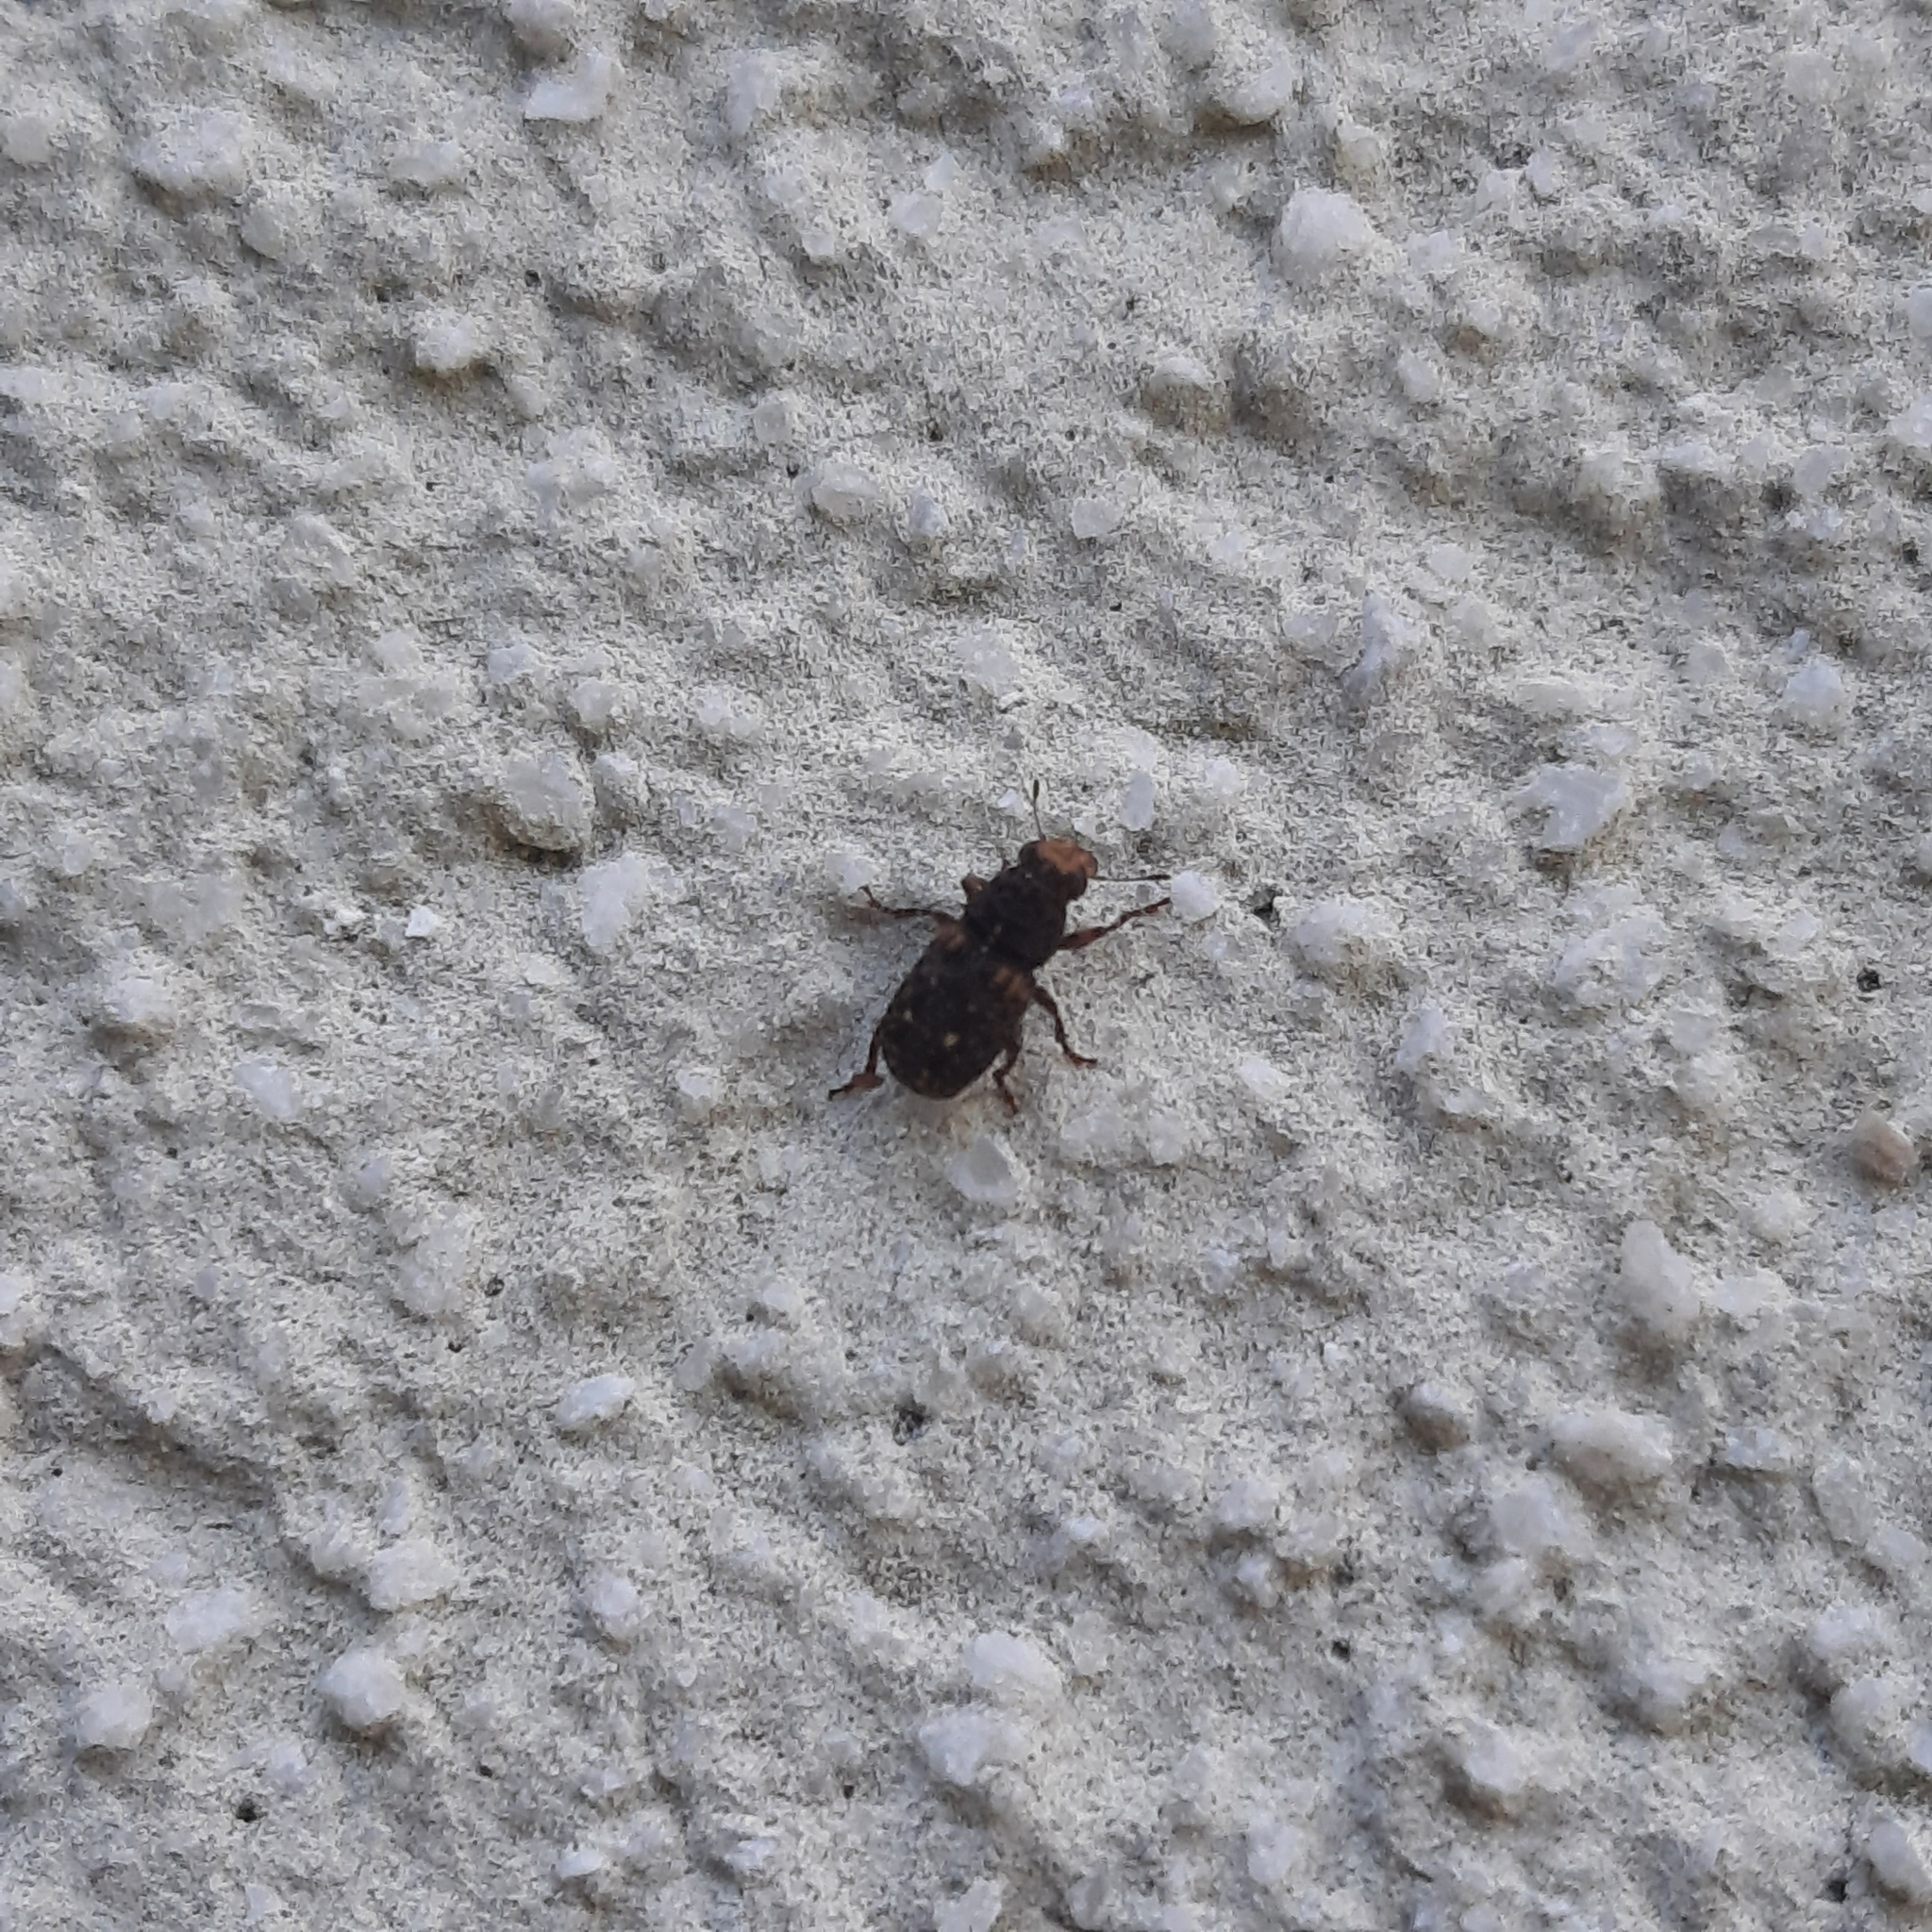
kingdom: Animalia
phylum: Arthropoda
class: Insecta
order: Coleoptera
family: Anthribidae
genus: Ulorhinus
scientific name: Ulorhinus bilineatus
